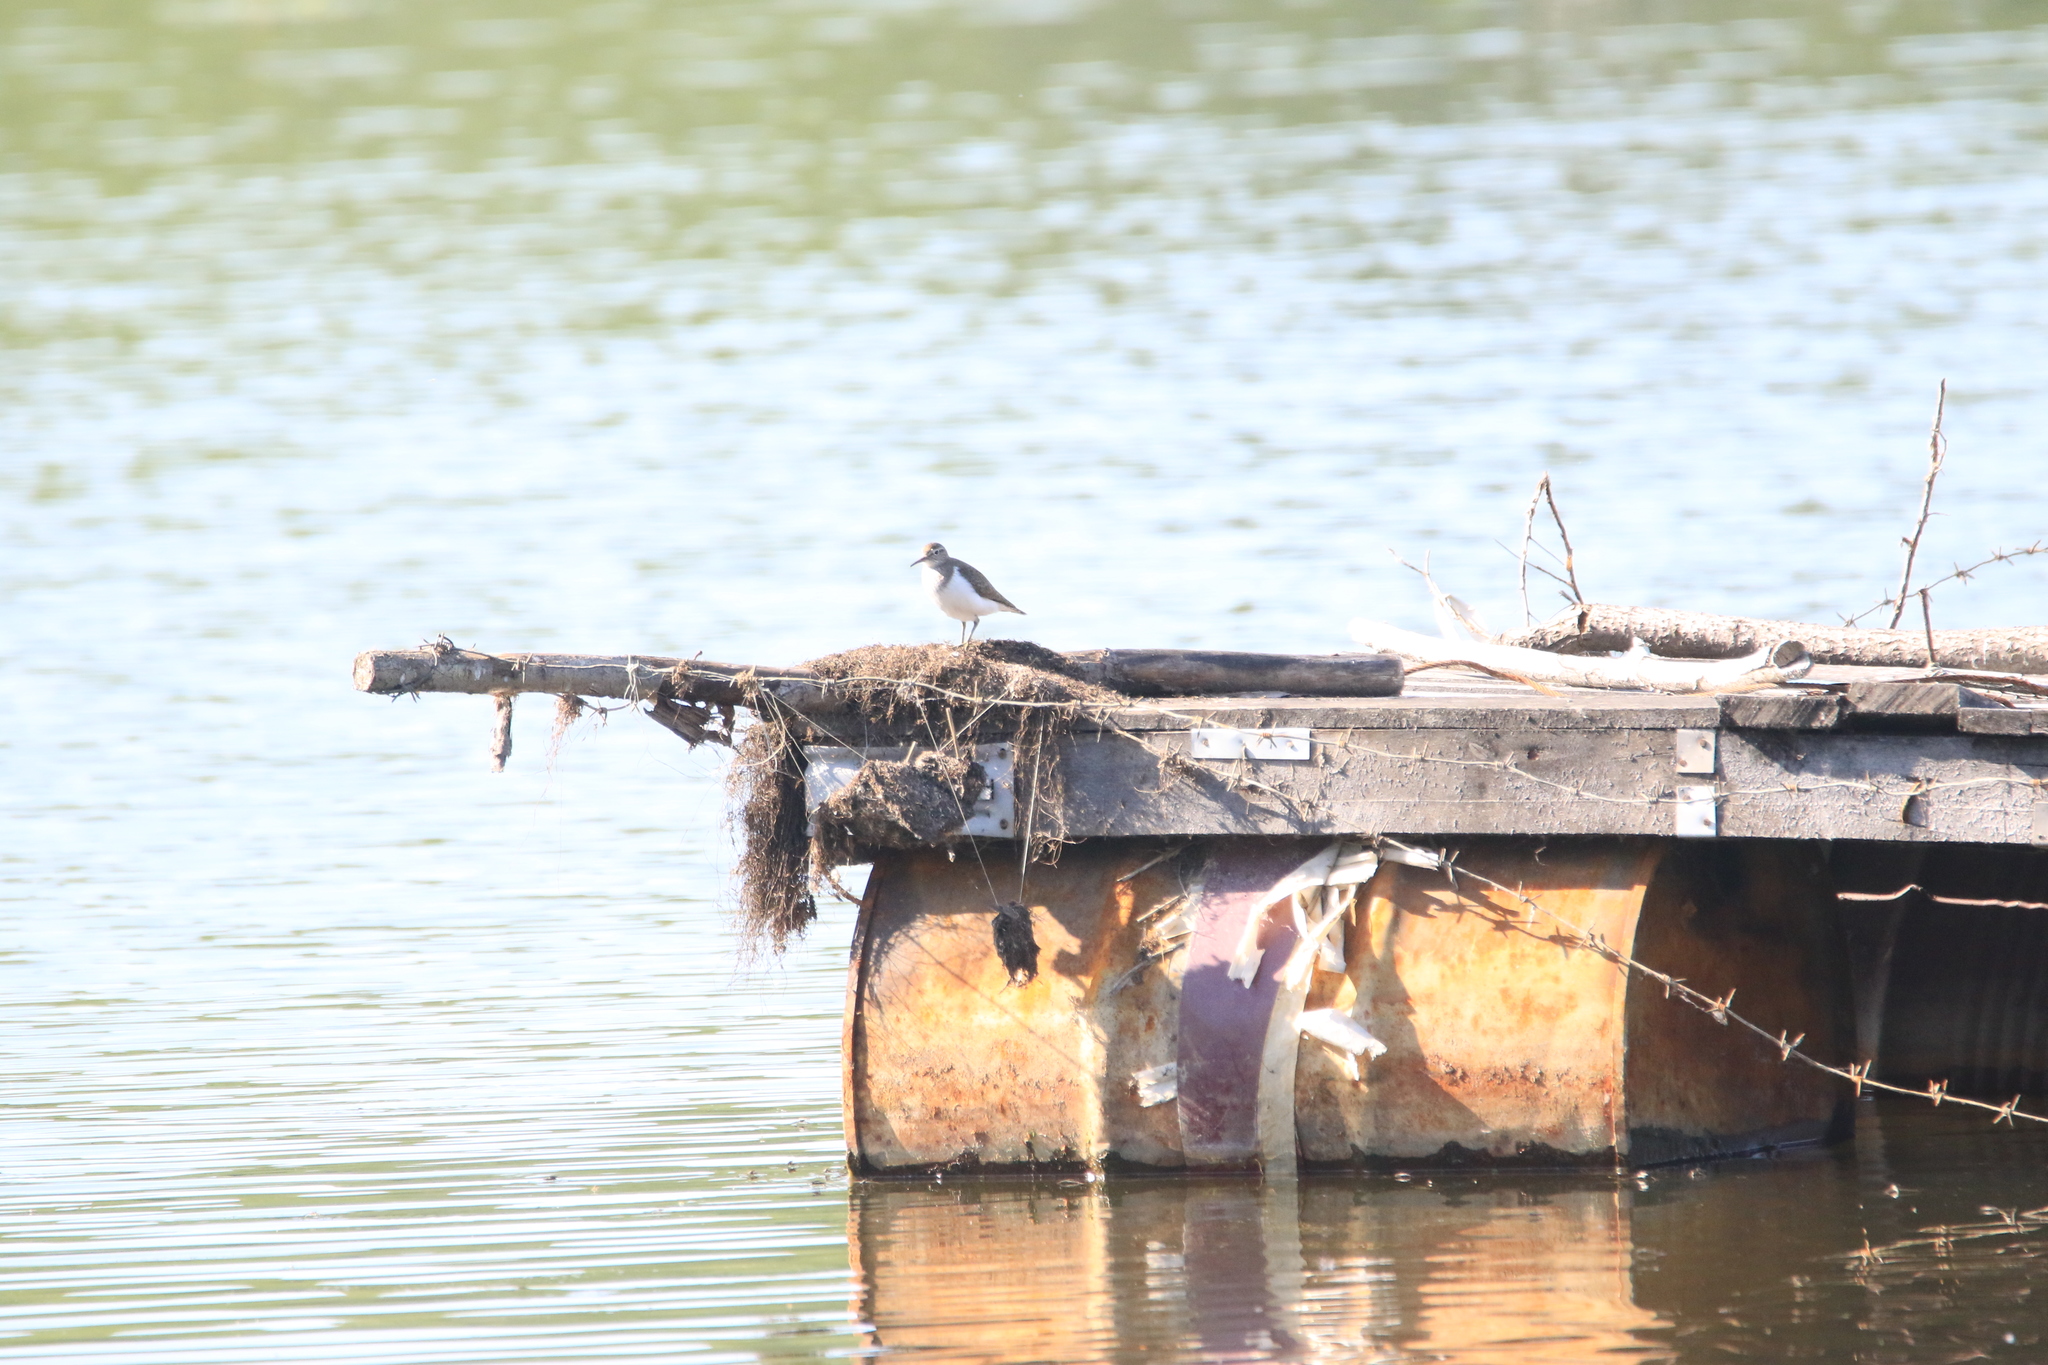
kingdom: Animalia
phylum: Chordata
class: Aves
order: Charadriiformes
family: Scolopacidae
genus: Actitis
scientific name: Actitis hypoleucos
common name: Common sandpiper
